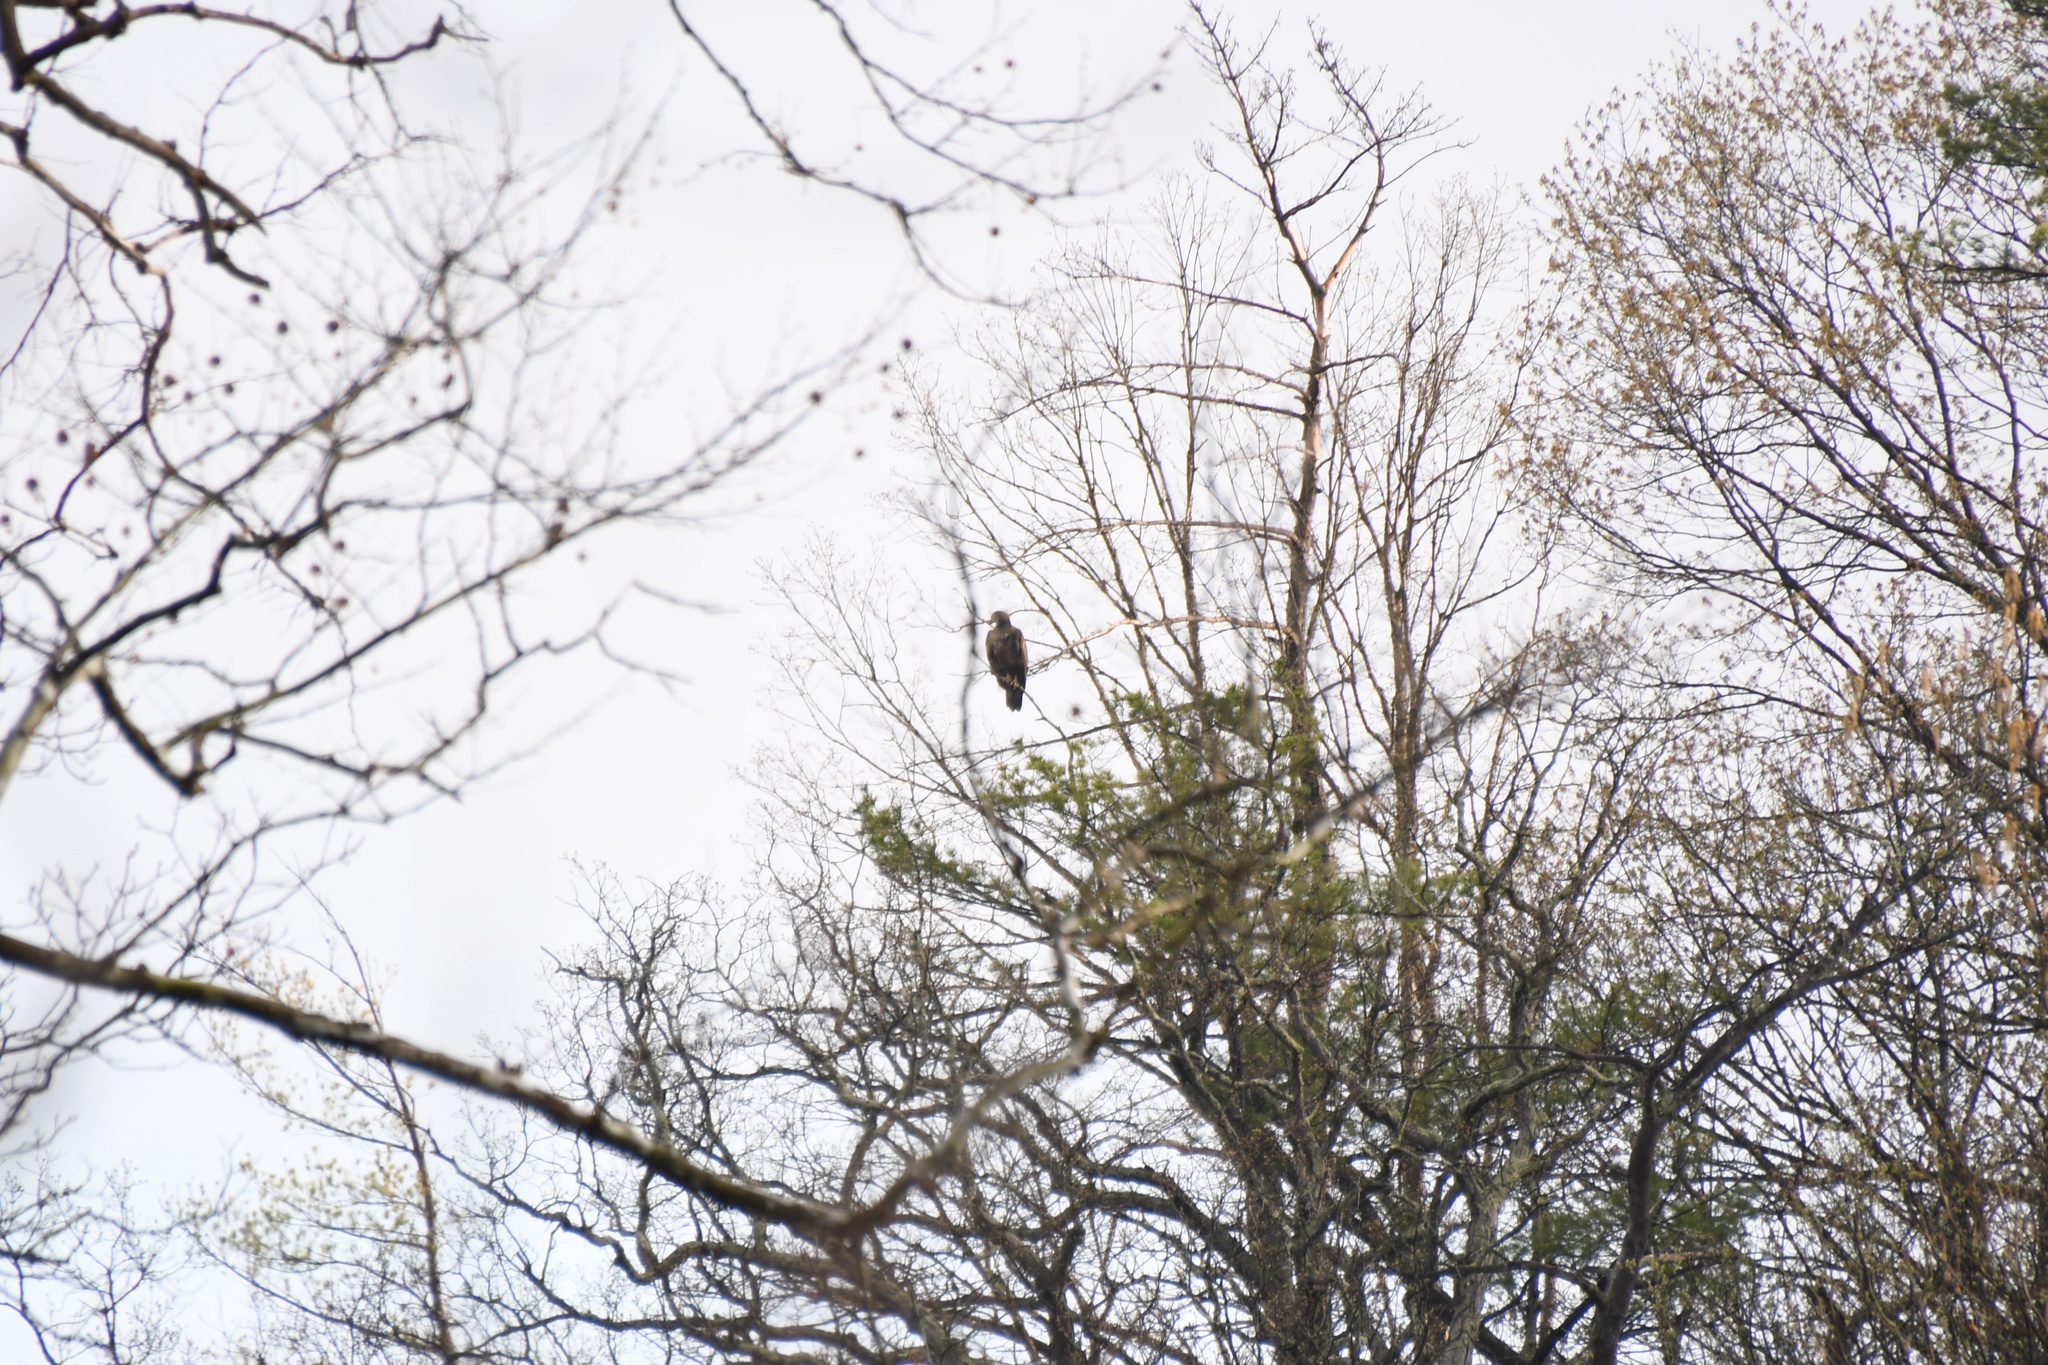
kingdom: Animalia
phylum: Chordata
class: Aves
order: Accipitriformes
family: Accipitridae
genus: Haliaeetus
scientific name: Haliaeetus leucocephalus
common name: Bald eagle
